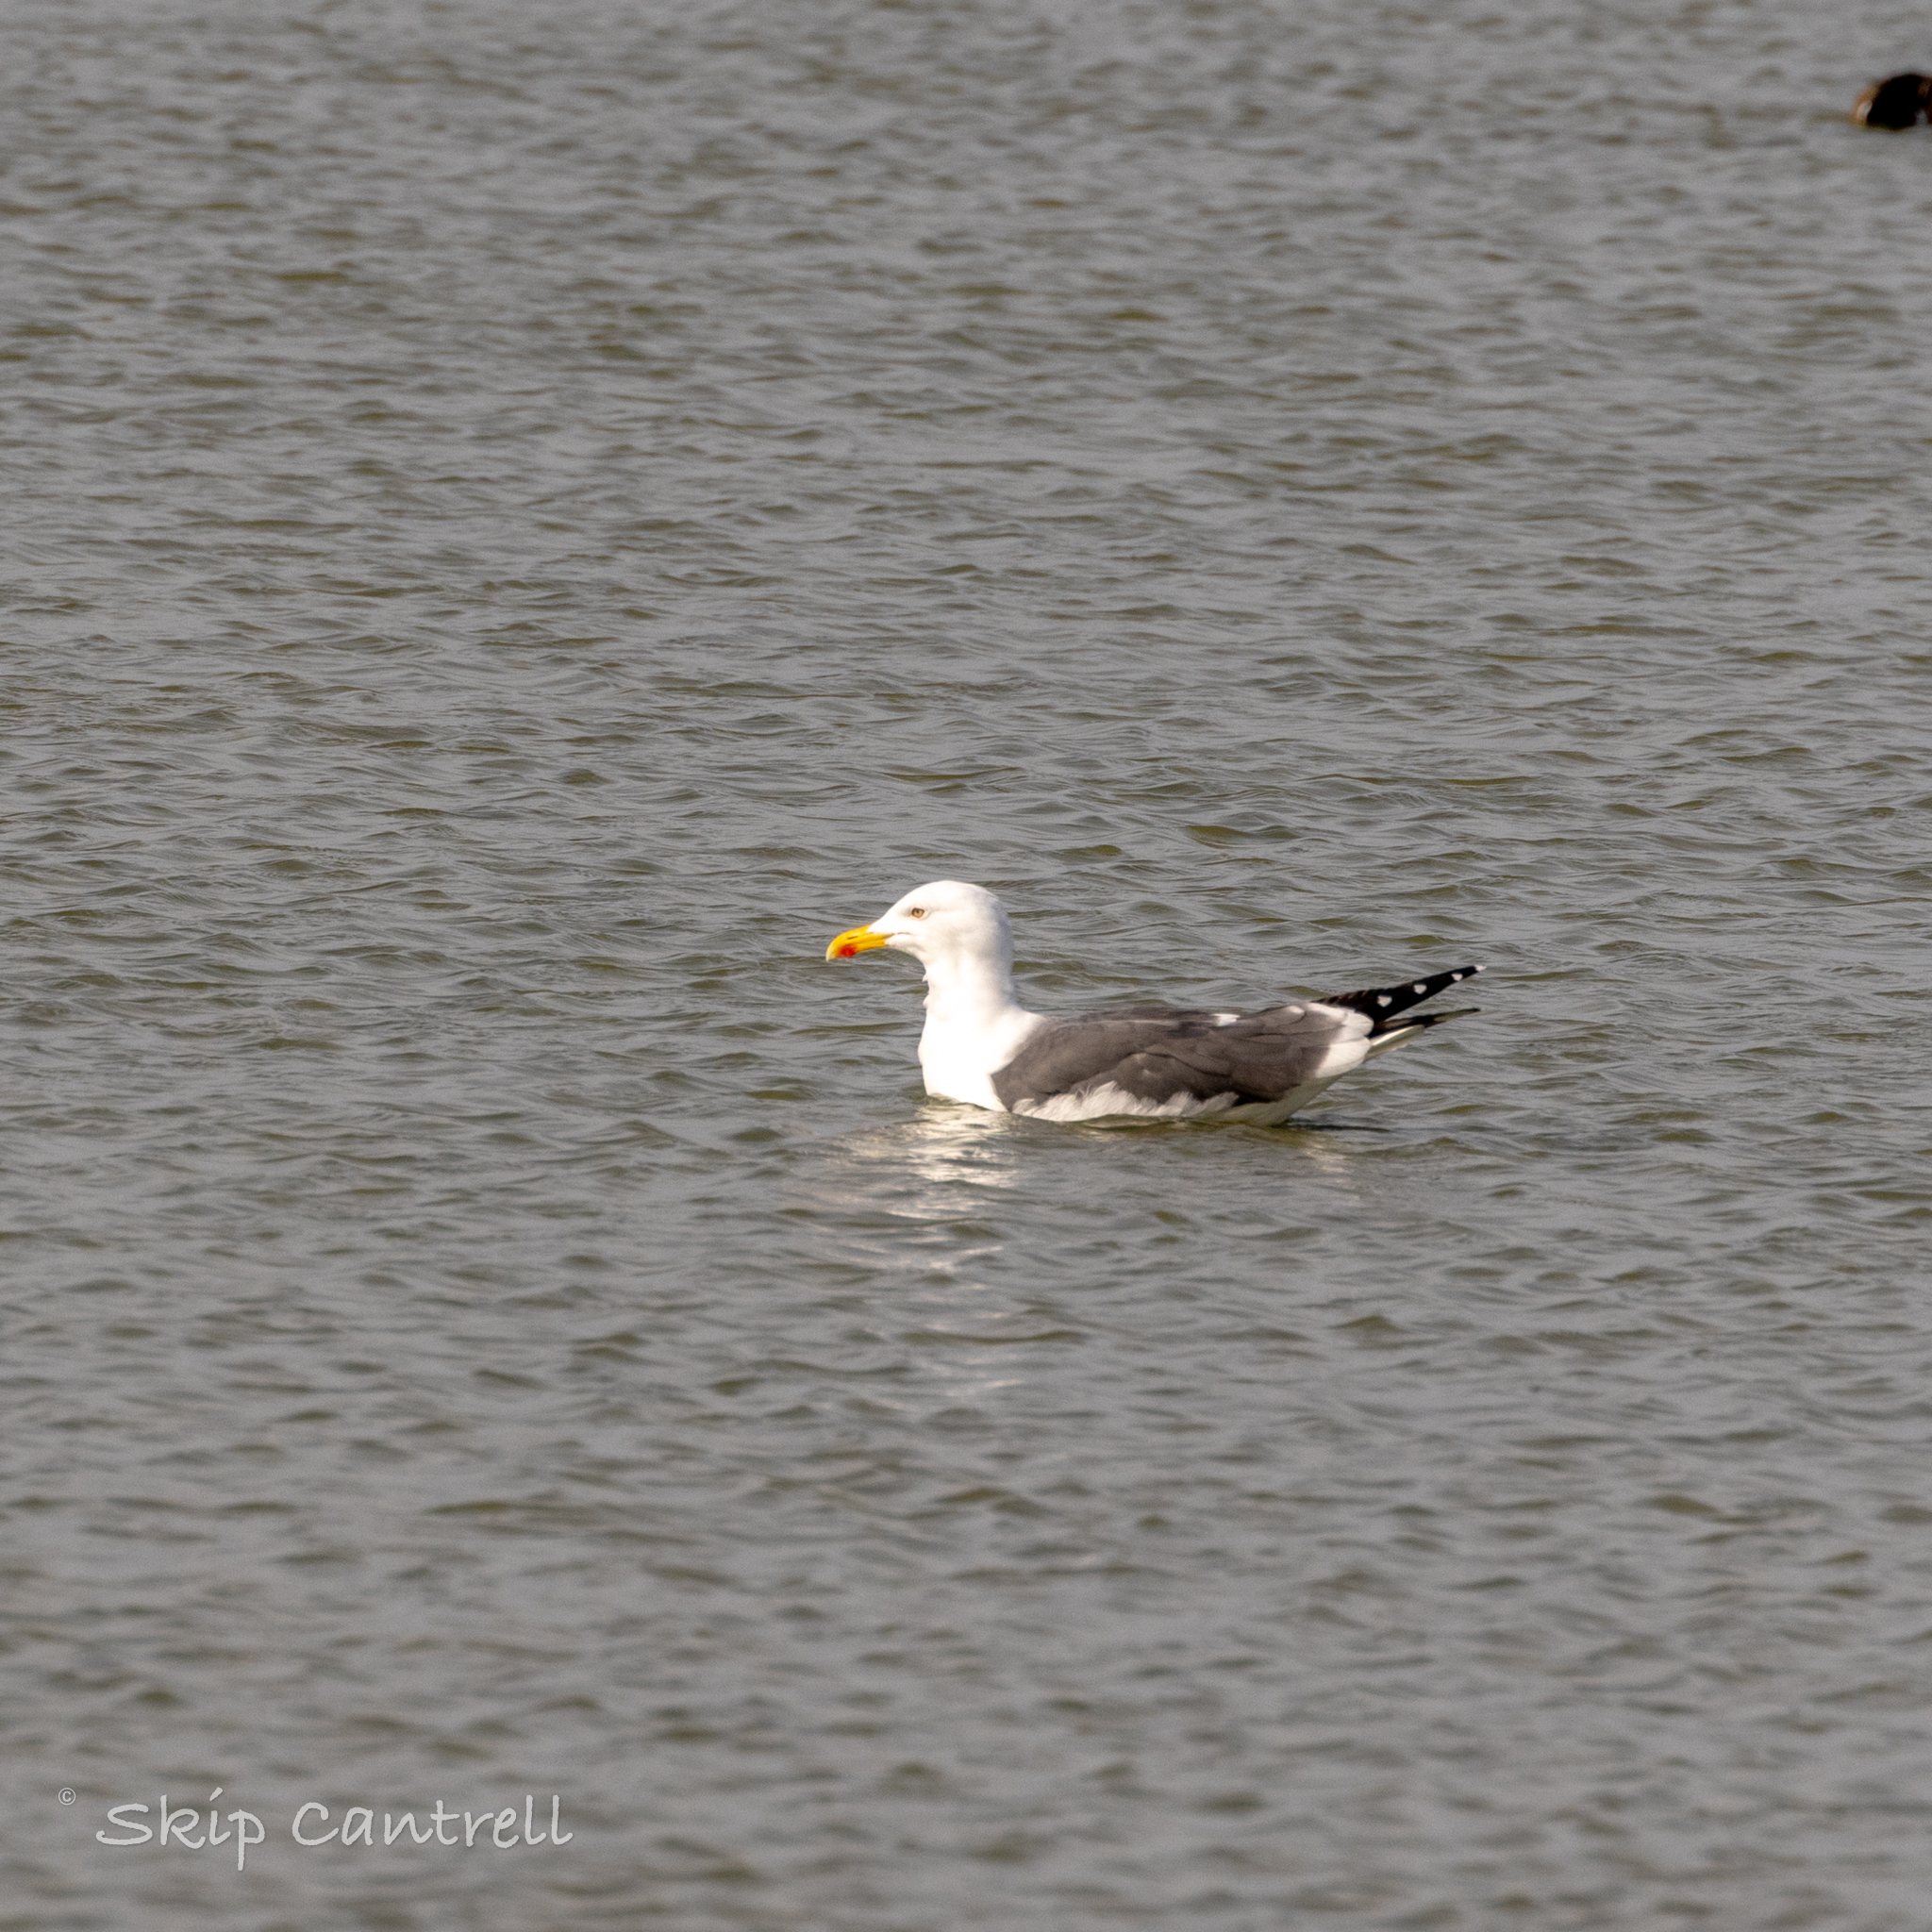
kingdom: Animalia
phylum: Chordata
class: Aves
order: Charadriiformes
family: Laridae
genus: Larus
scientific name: Larus fuscus
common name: Lesser black-backed gull
